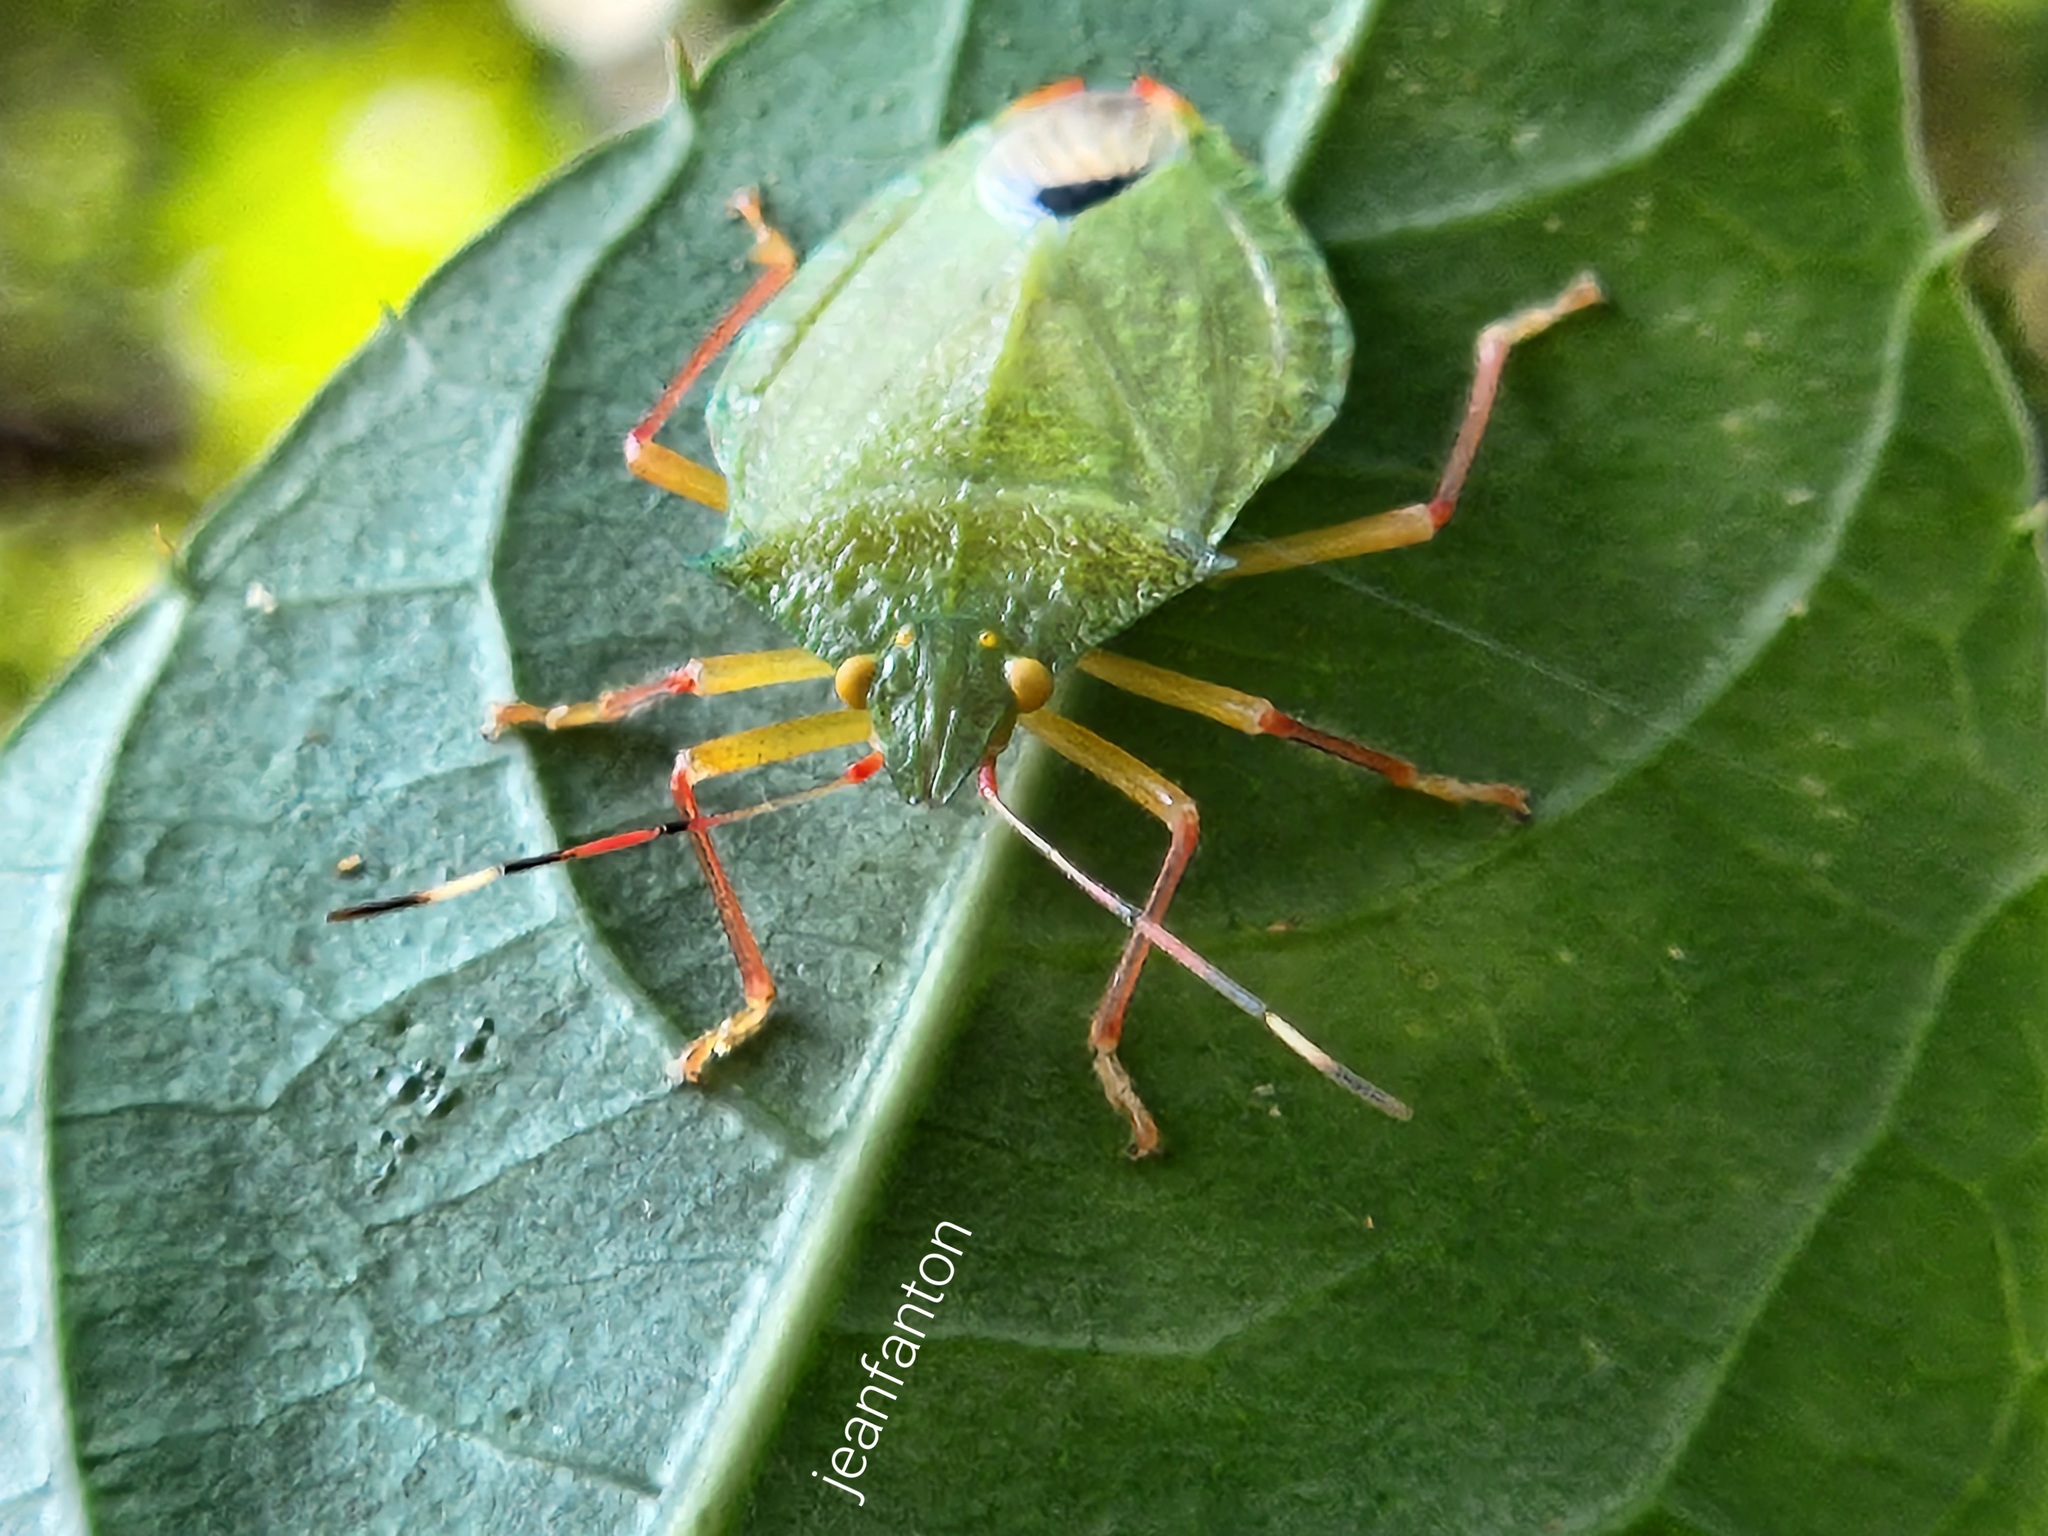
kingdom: Animalia
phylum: Arthropoda
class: Insecta
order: Hemiptera
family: Pentatomidae
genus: Chlorocoris
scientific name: Chlorocoris complanatus
